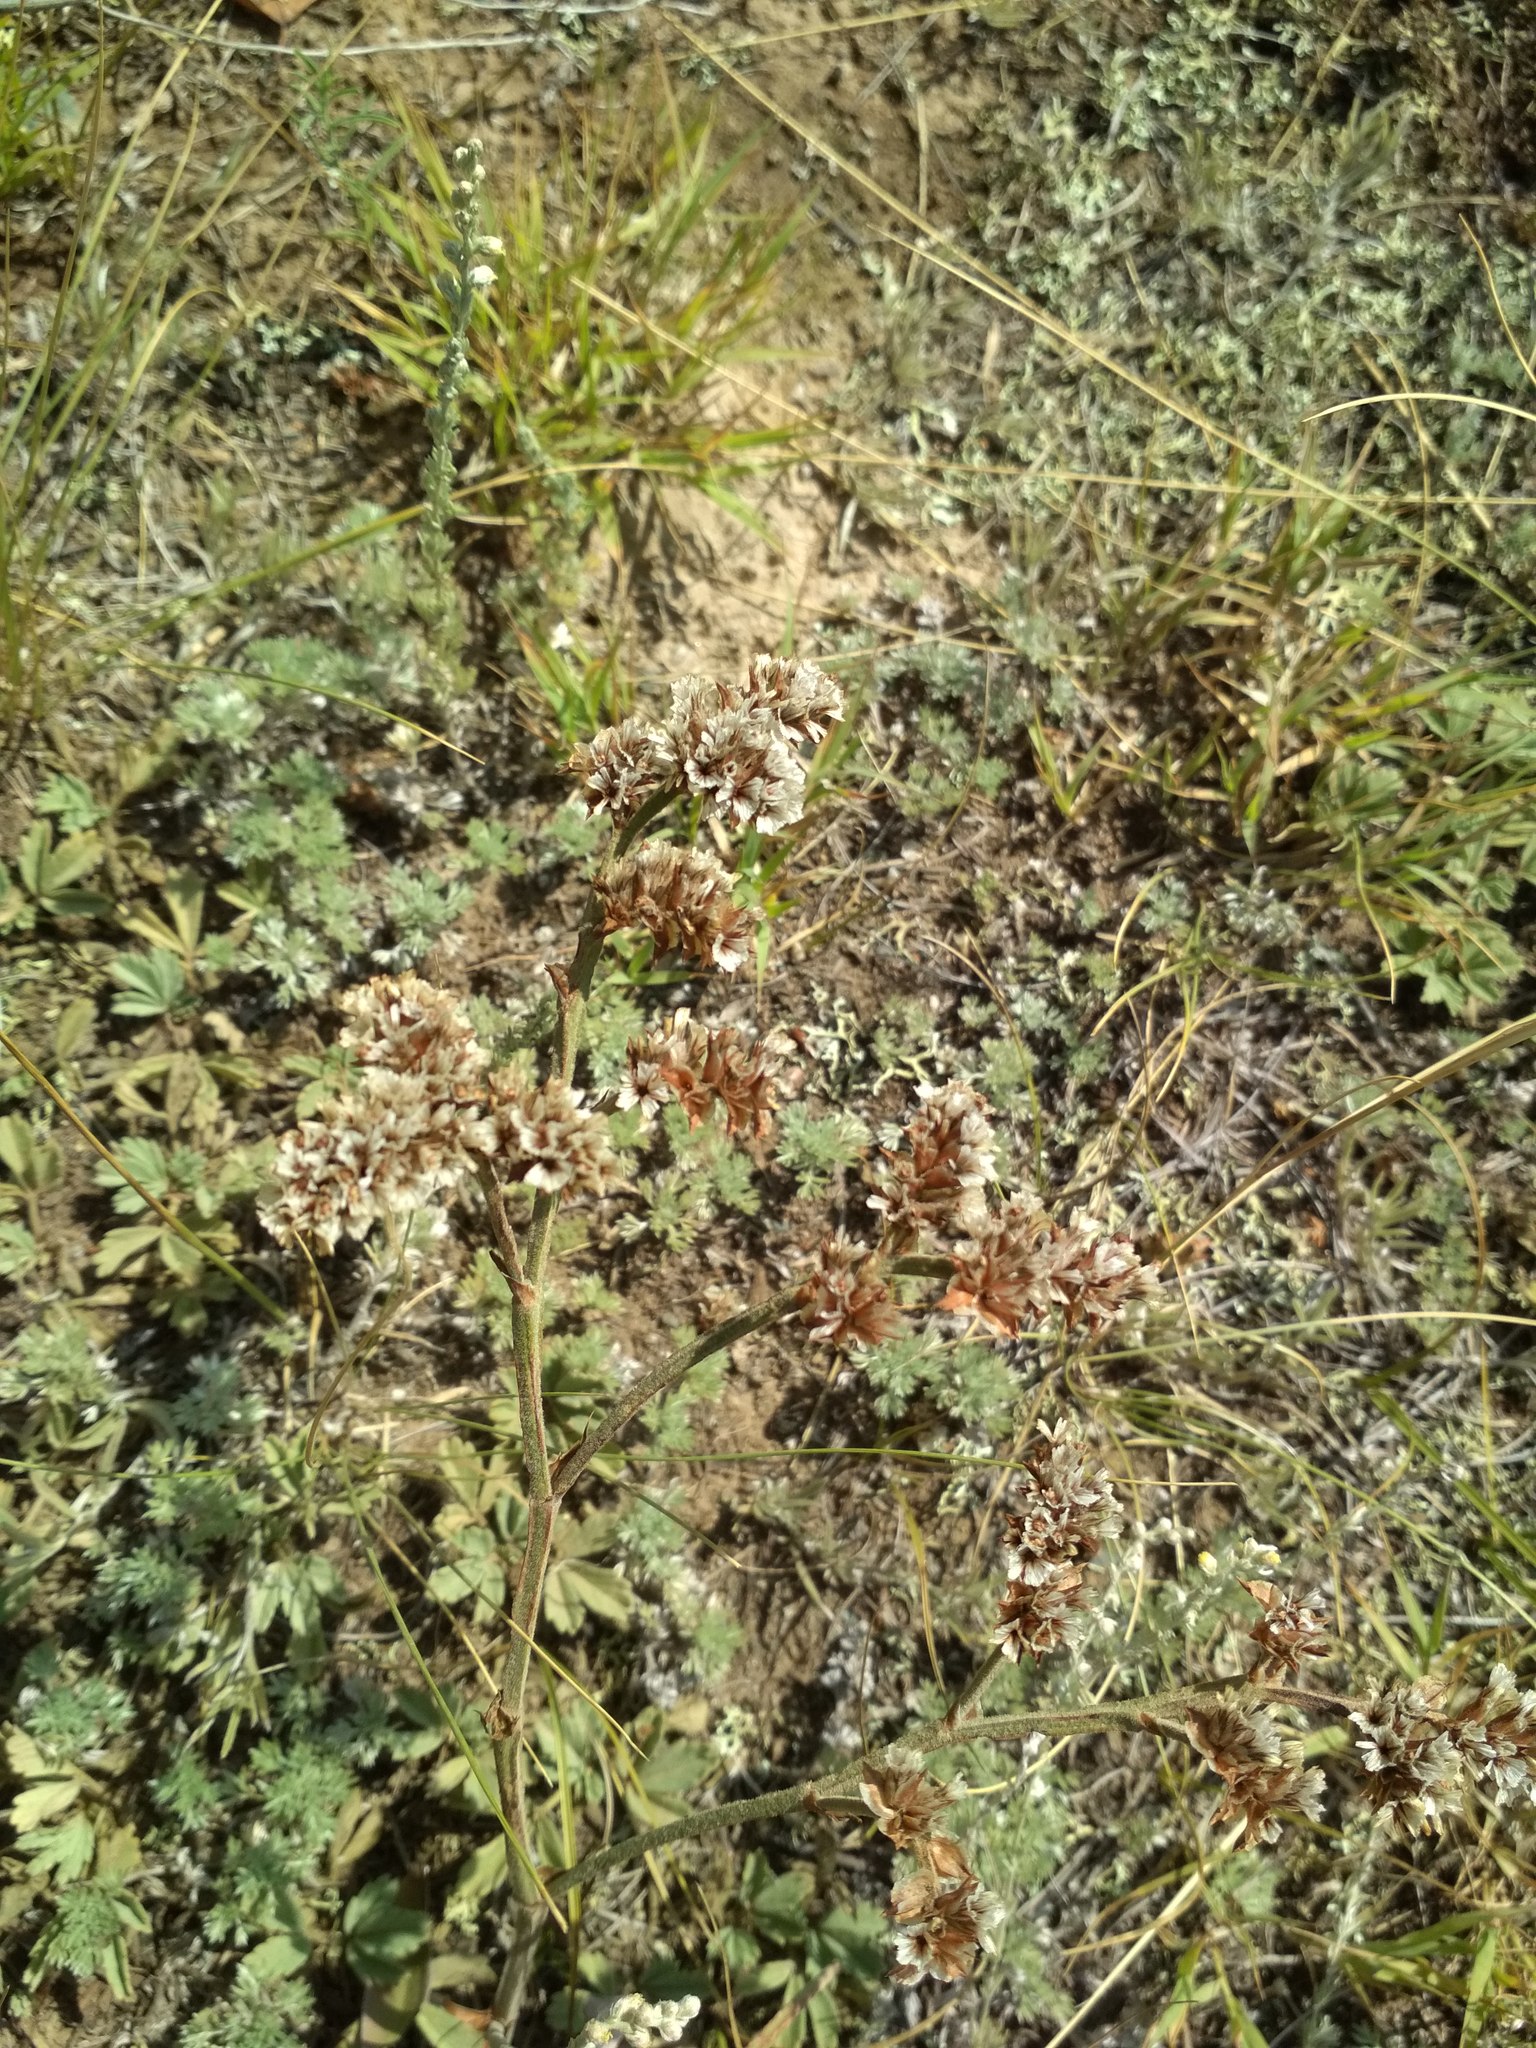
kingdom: Plantae
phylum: Tracheophyta
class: Magnoliopsida
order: Caryophyllales
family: Plumbaginaceae
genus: Goniolimon
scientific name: Goniolimon speciosum
